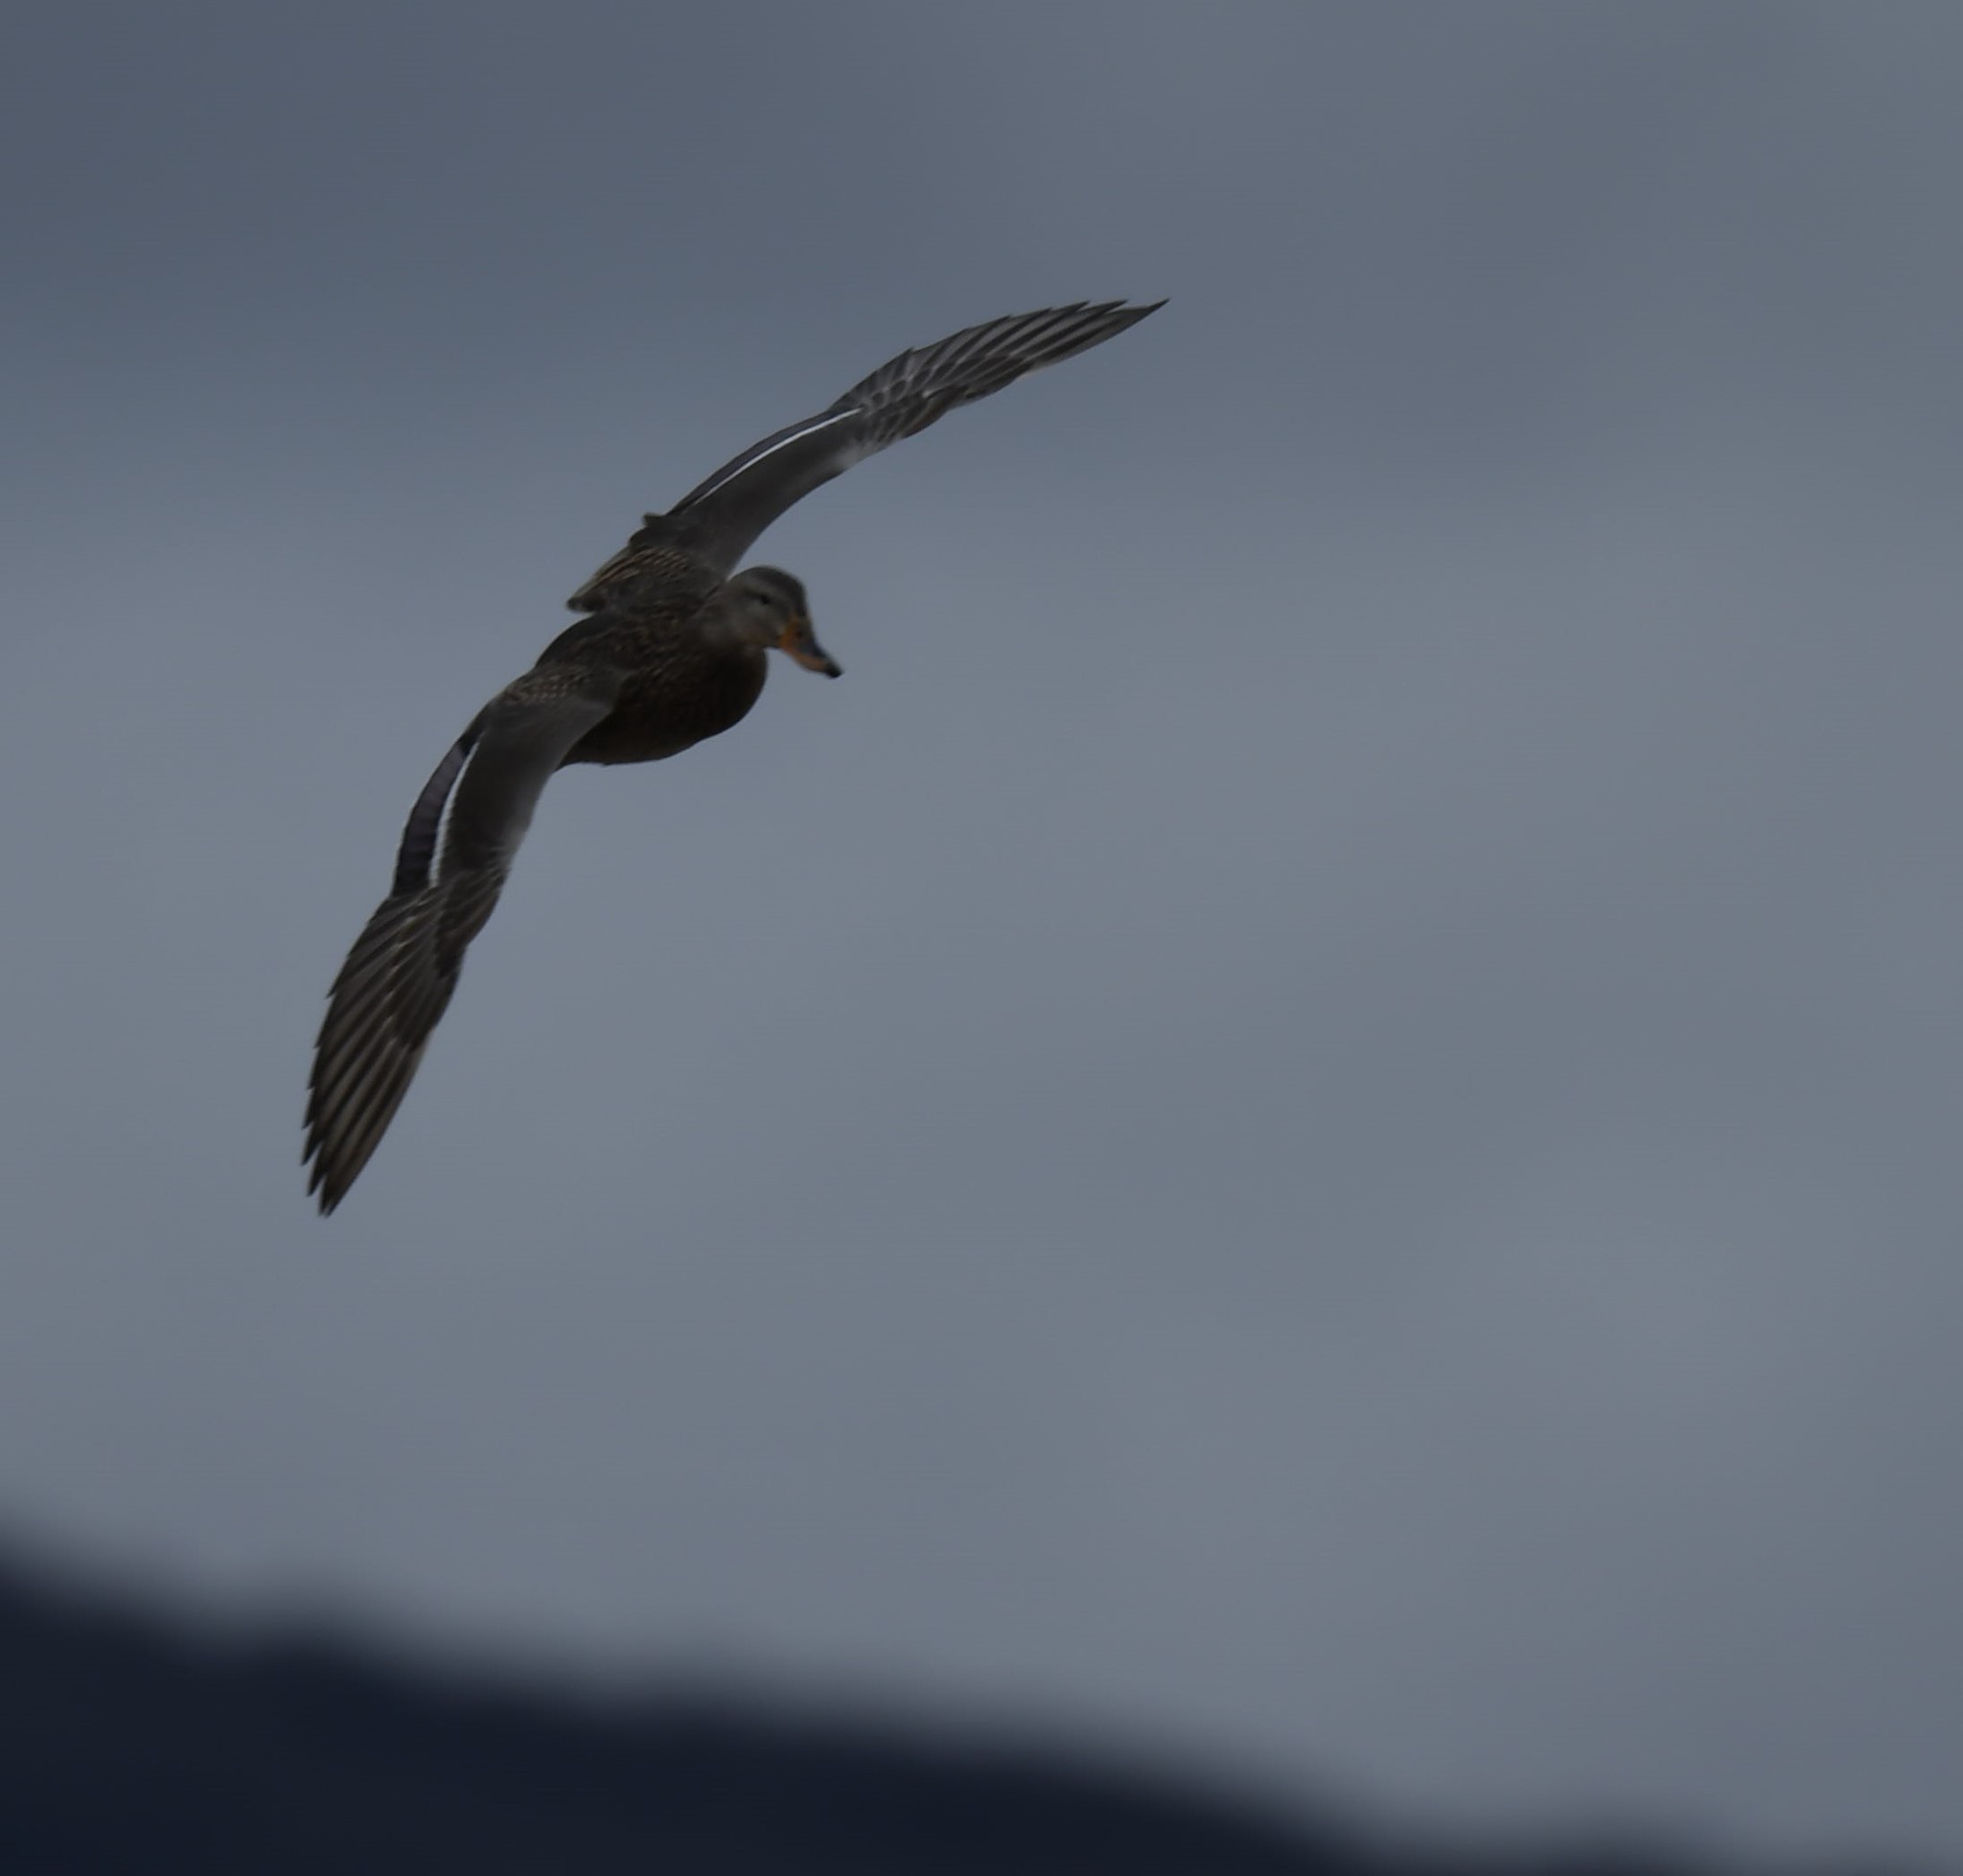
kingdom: Animalia
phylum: Chordata
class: Aves
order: Anseriformes
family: Anatidae
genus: Anas
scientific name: Anas platyrhynchos
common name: Mallard
